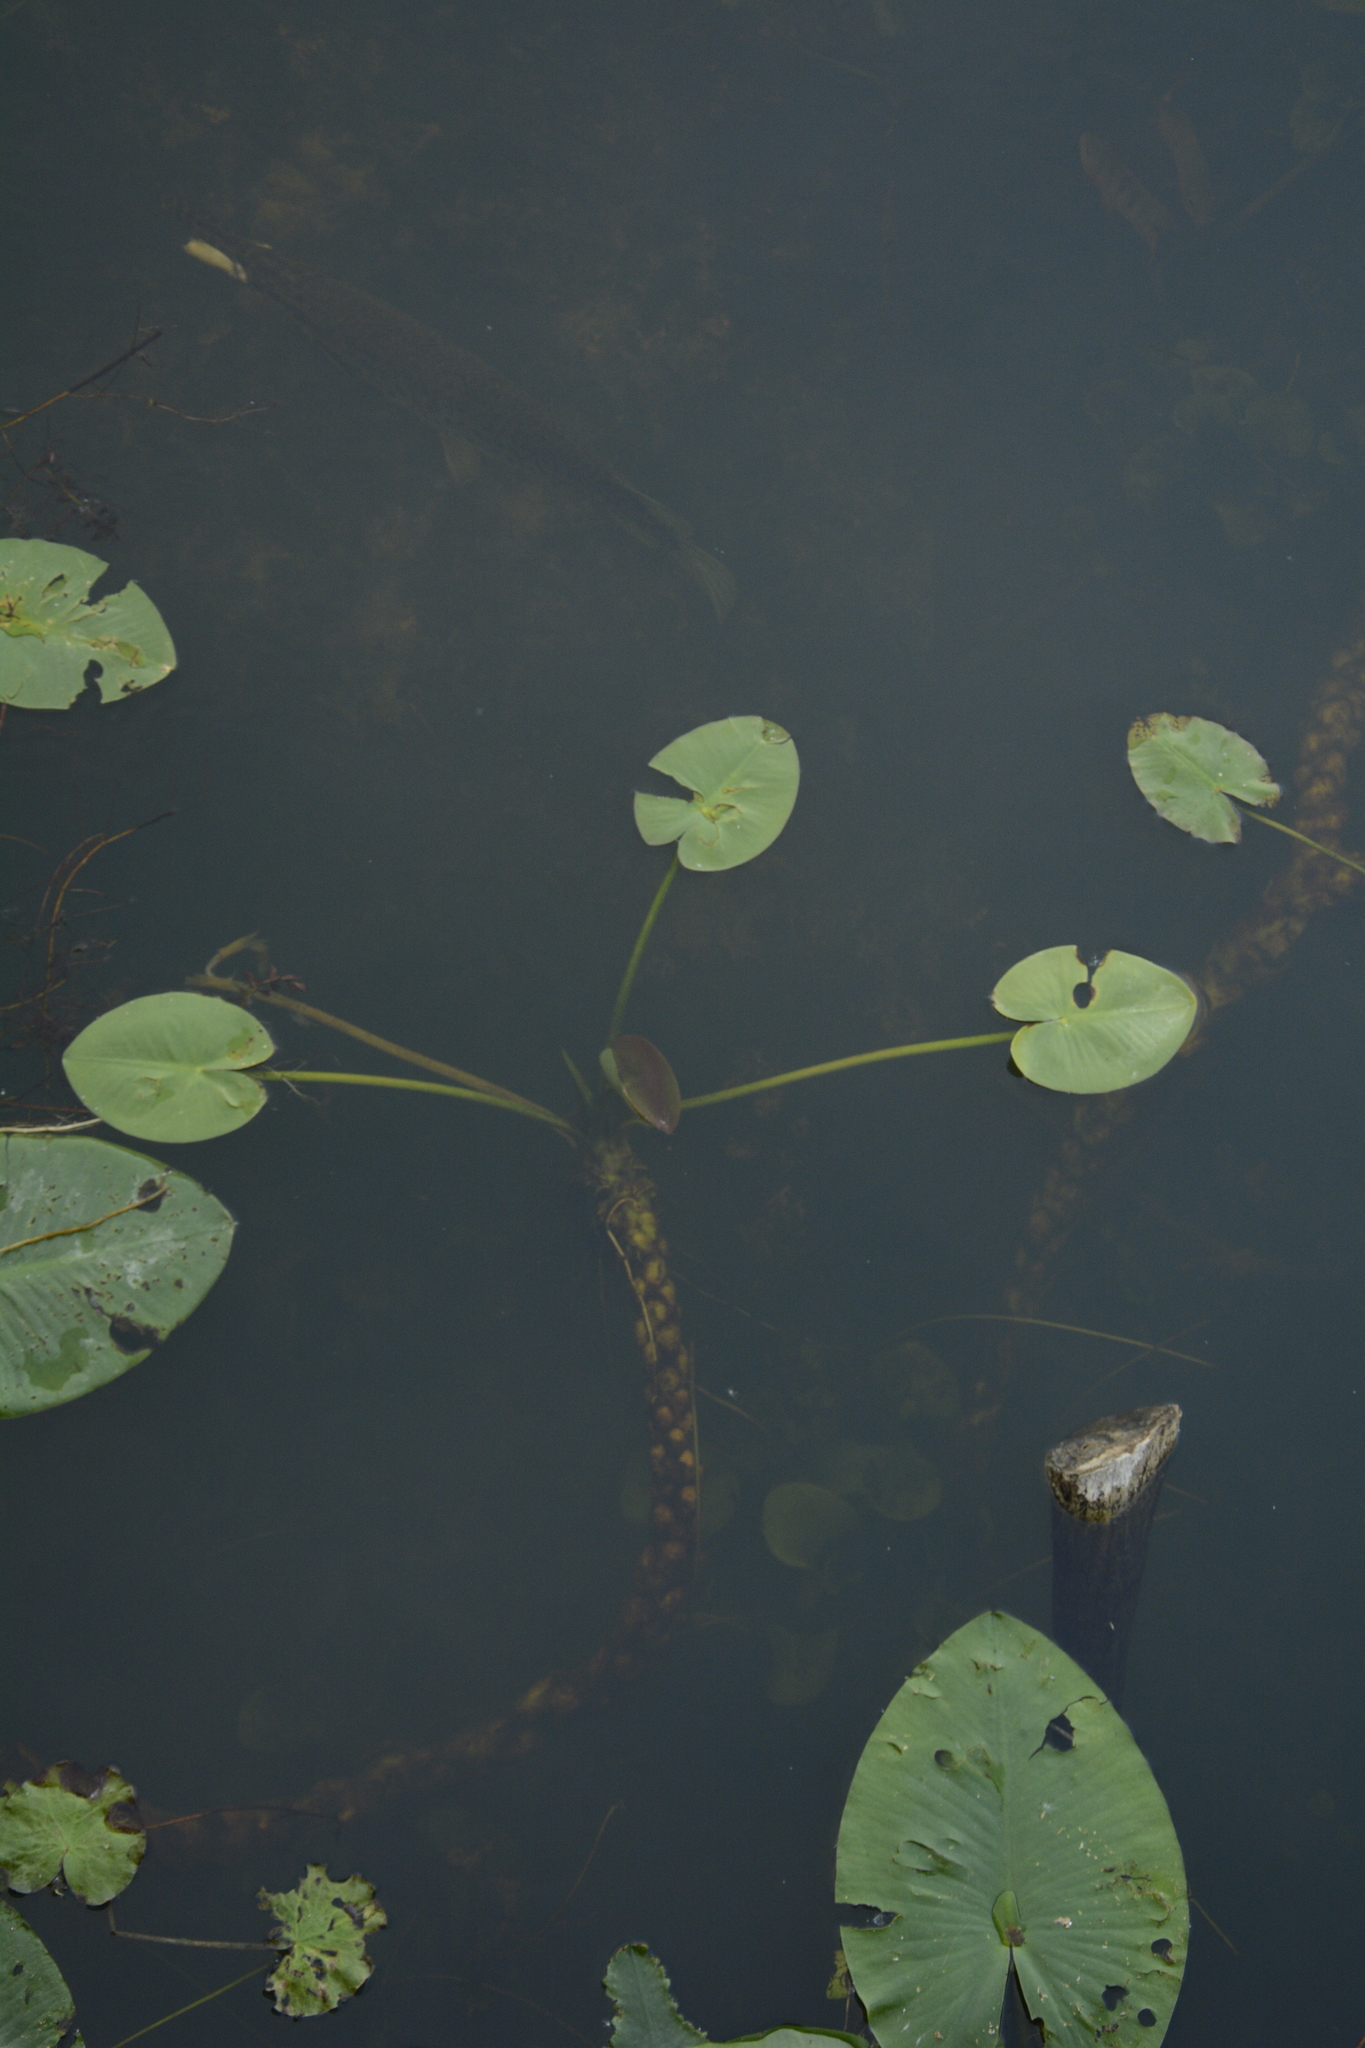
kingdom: Plantae
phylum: Tracheophyta
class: Magnoliopsida
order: Nymphaeales
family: Nymphaeaceae
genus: Nuphar
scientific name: Nuphar advena
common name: Spatter-dock
